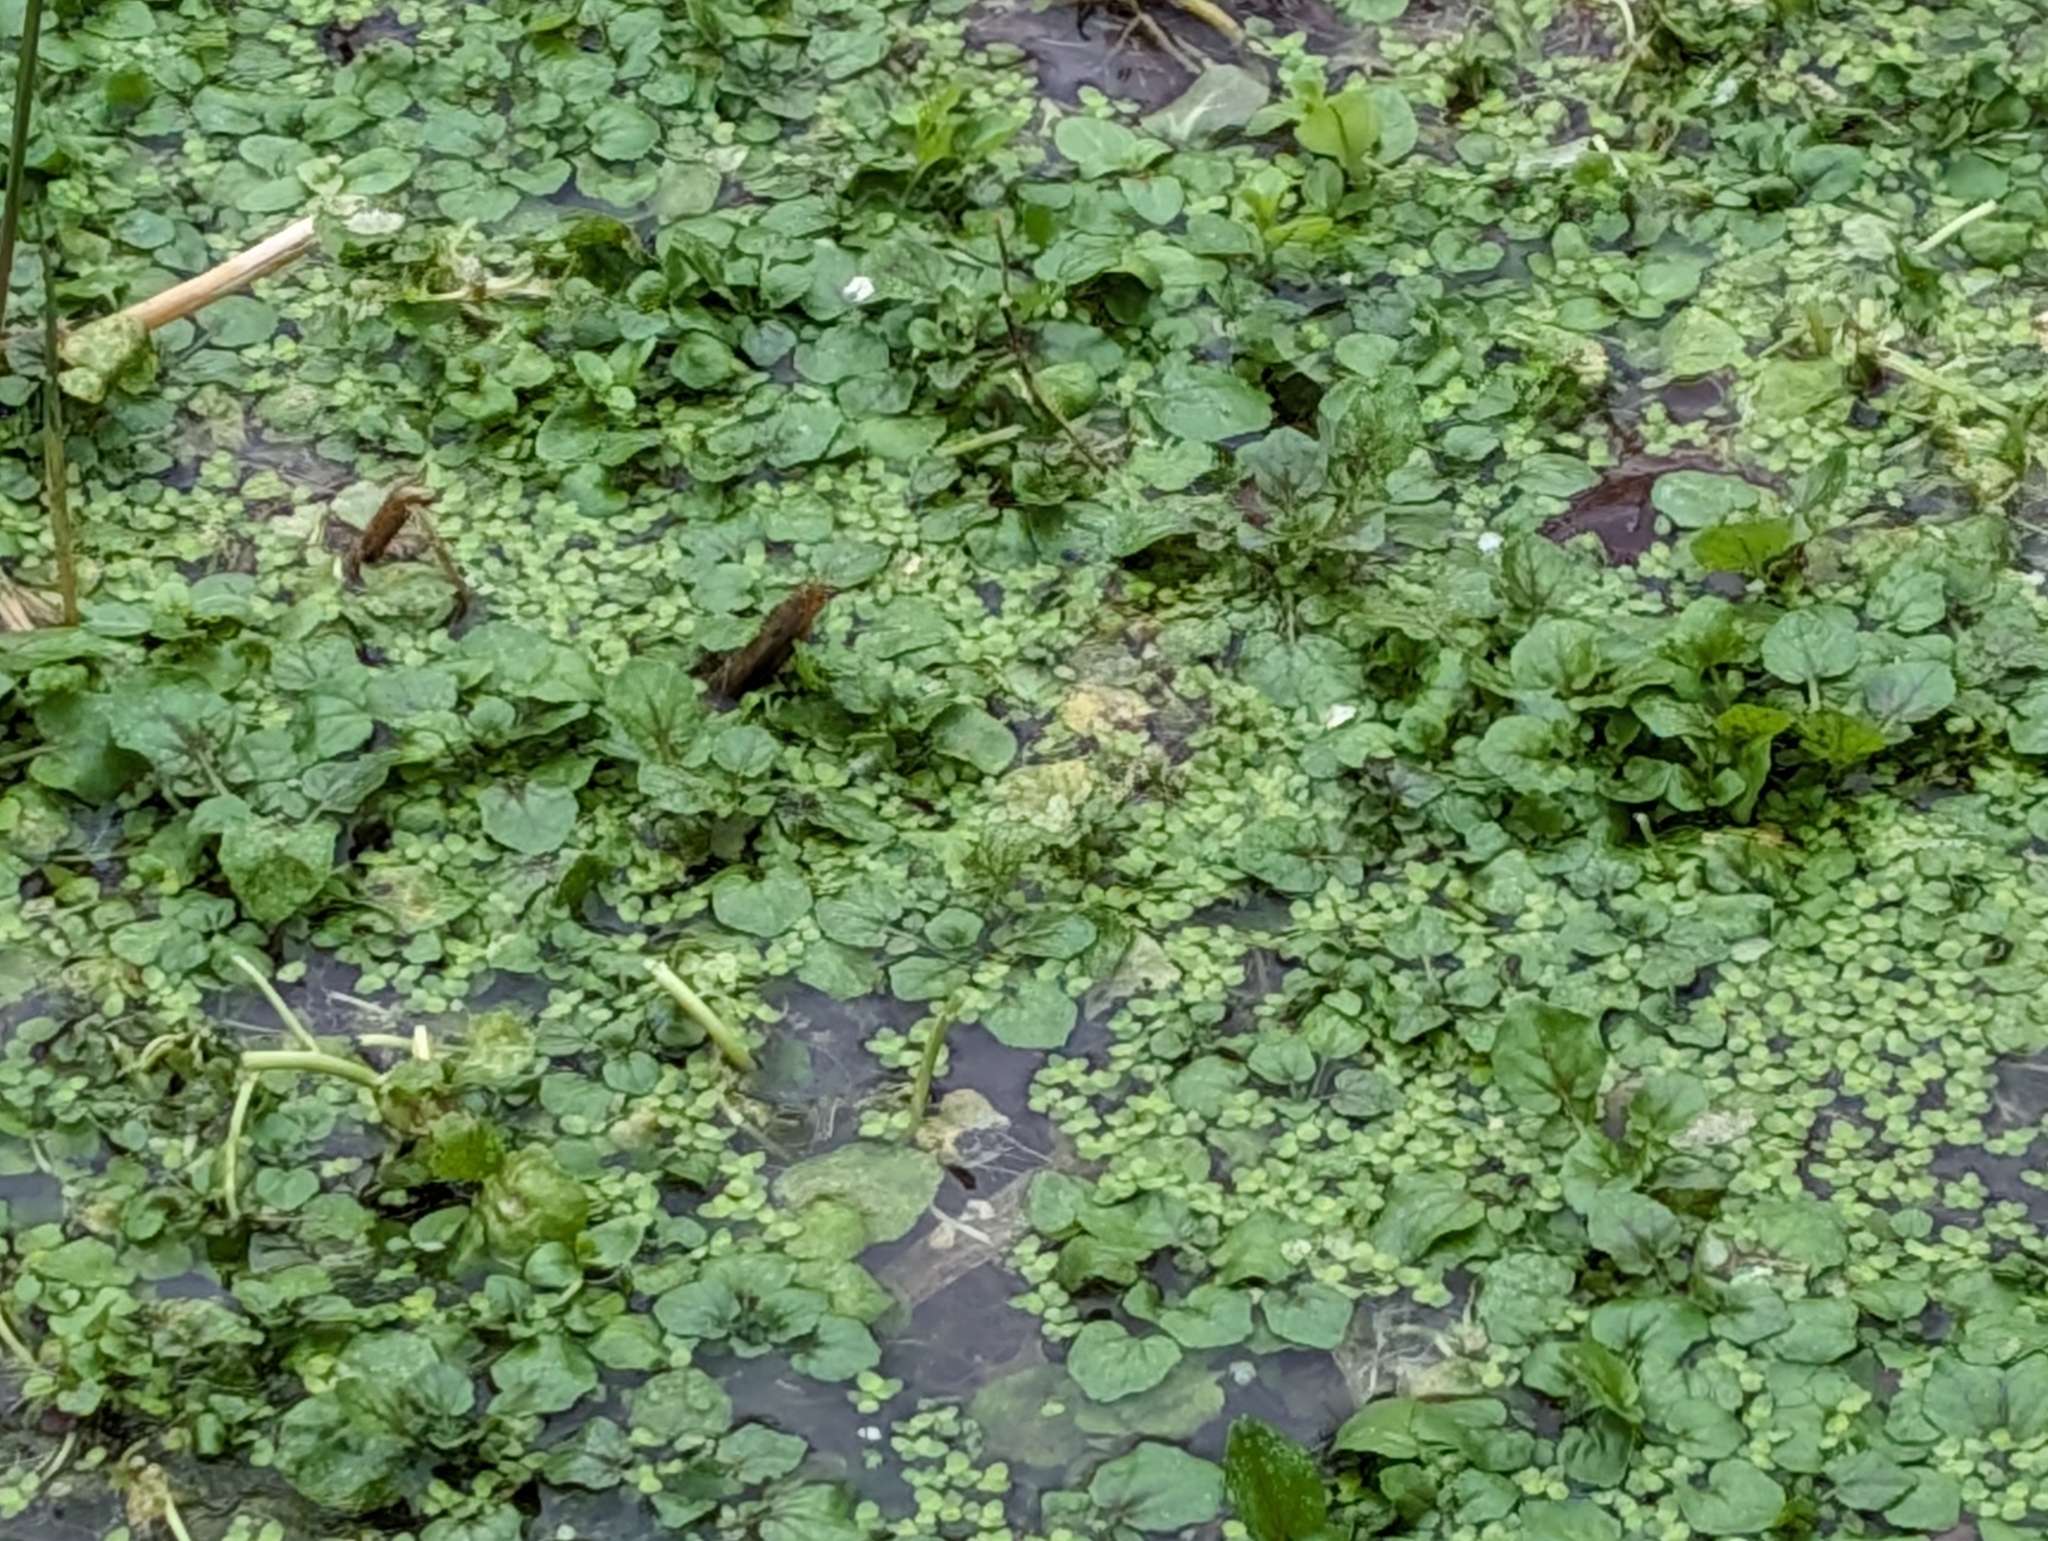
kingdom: Plantae
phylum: Tracheophyta
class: Magnoliopsida
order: Brassicales
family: Brassicaceae
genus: Nasturtium
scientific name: Nasturtium officinale
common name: Watercress
